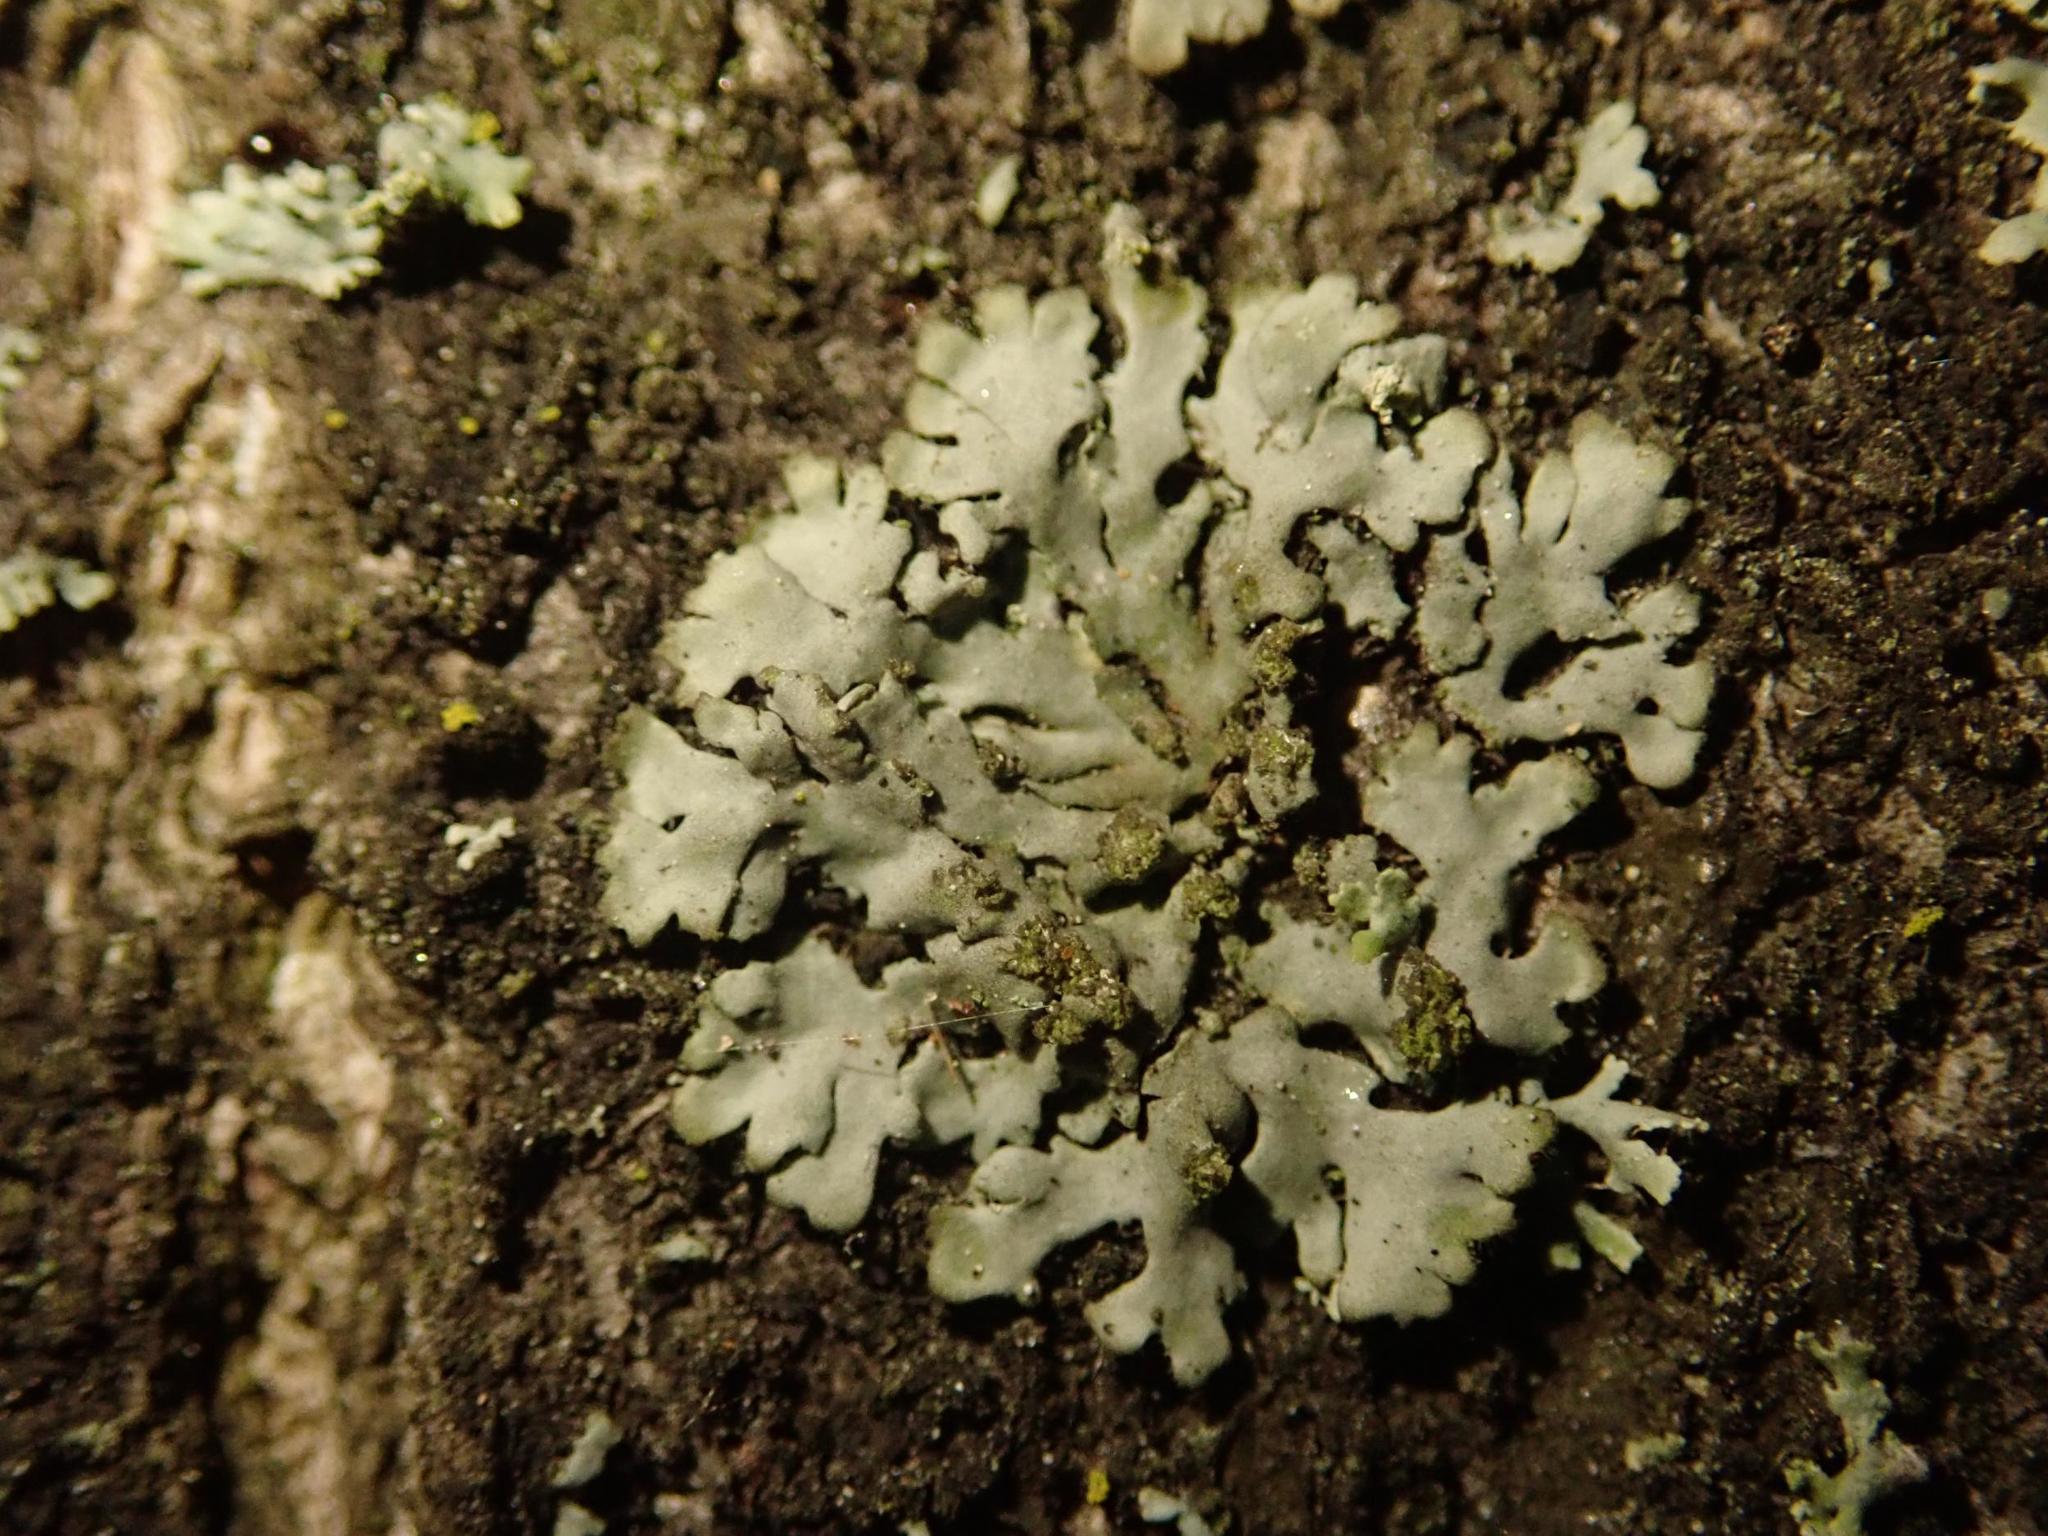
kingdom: Fungi
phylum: Ascomycota
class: Lecanoromycetes
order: Caliciales
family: Physciaceae
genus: Phaeophyscia
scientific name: Phaeophyscia orbicularis
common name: Mealy shadow lichen
